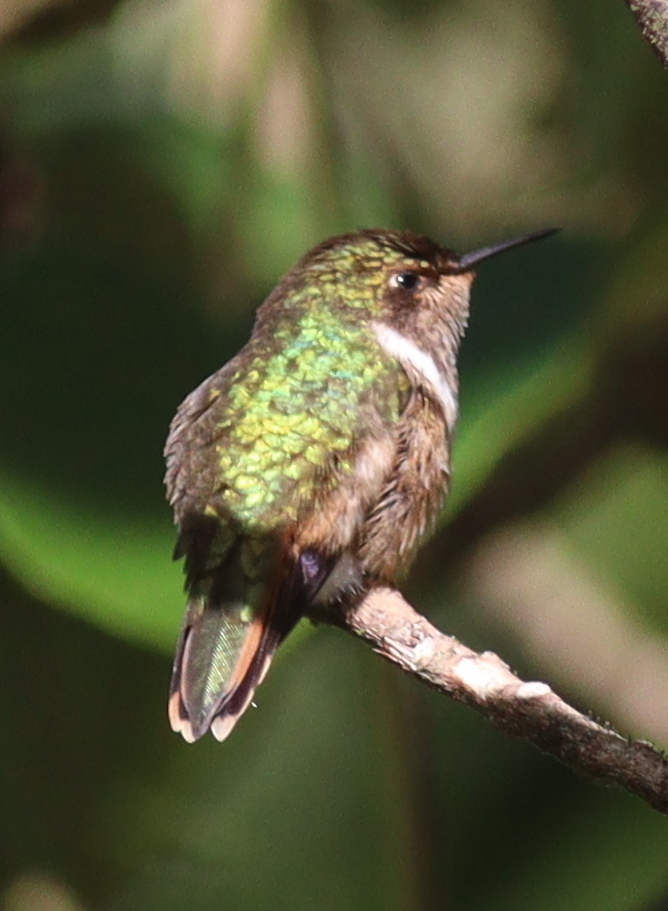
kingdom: Animalia
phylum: Chordata
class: Aves
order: Apodiformes
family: Trochilidae
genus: Selasphorus
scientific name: Selasphorus scintilla
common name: Scintillant hummingbird
